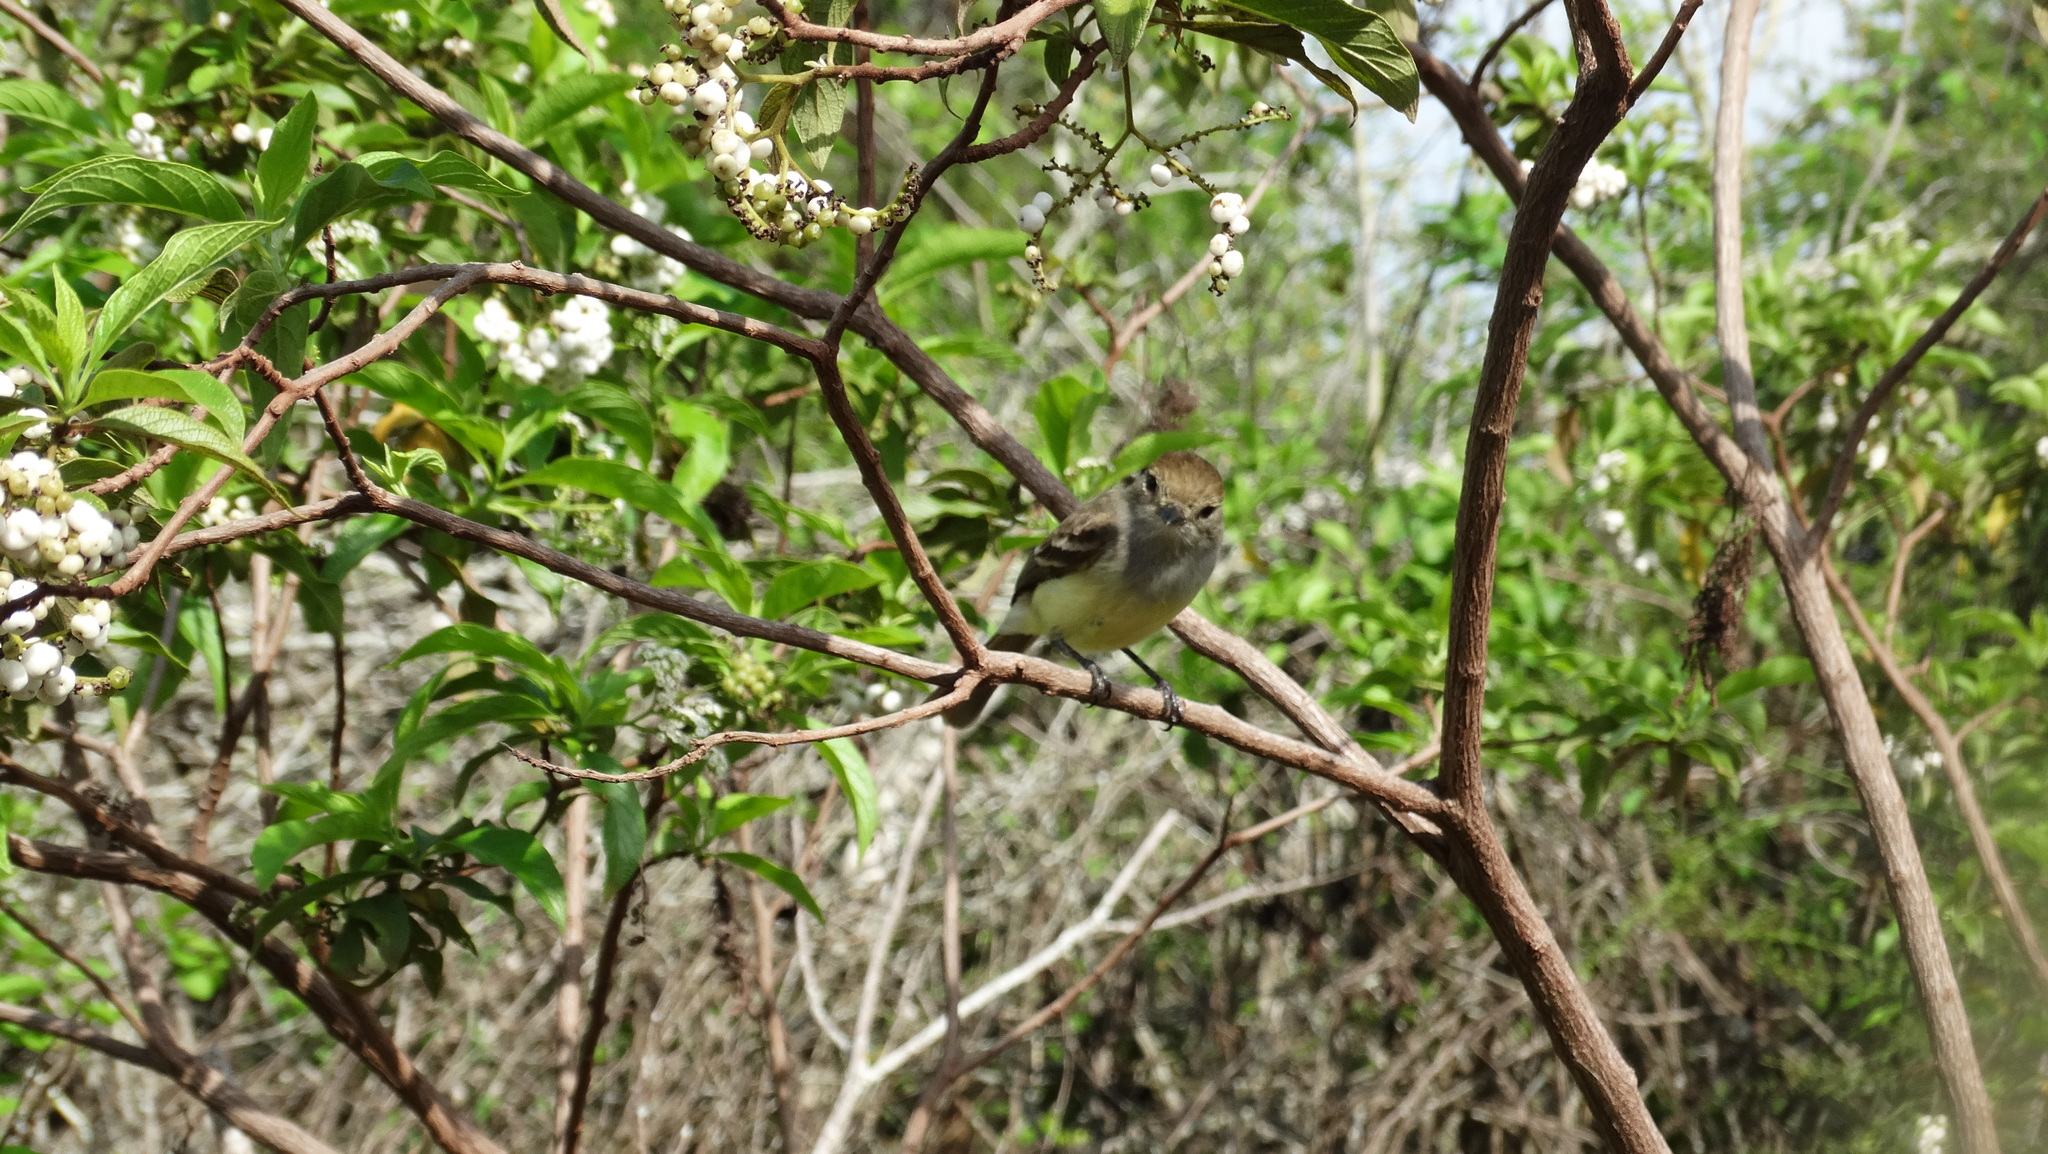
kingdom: Animalia
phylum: Chordata
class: Aves
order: Passeriformes
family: Tyrannidae
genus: Myiarchus
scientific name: Myiarchus magnirostris
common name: Galapagos flycatcher
